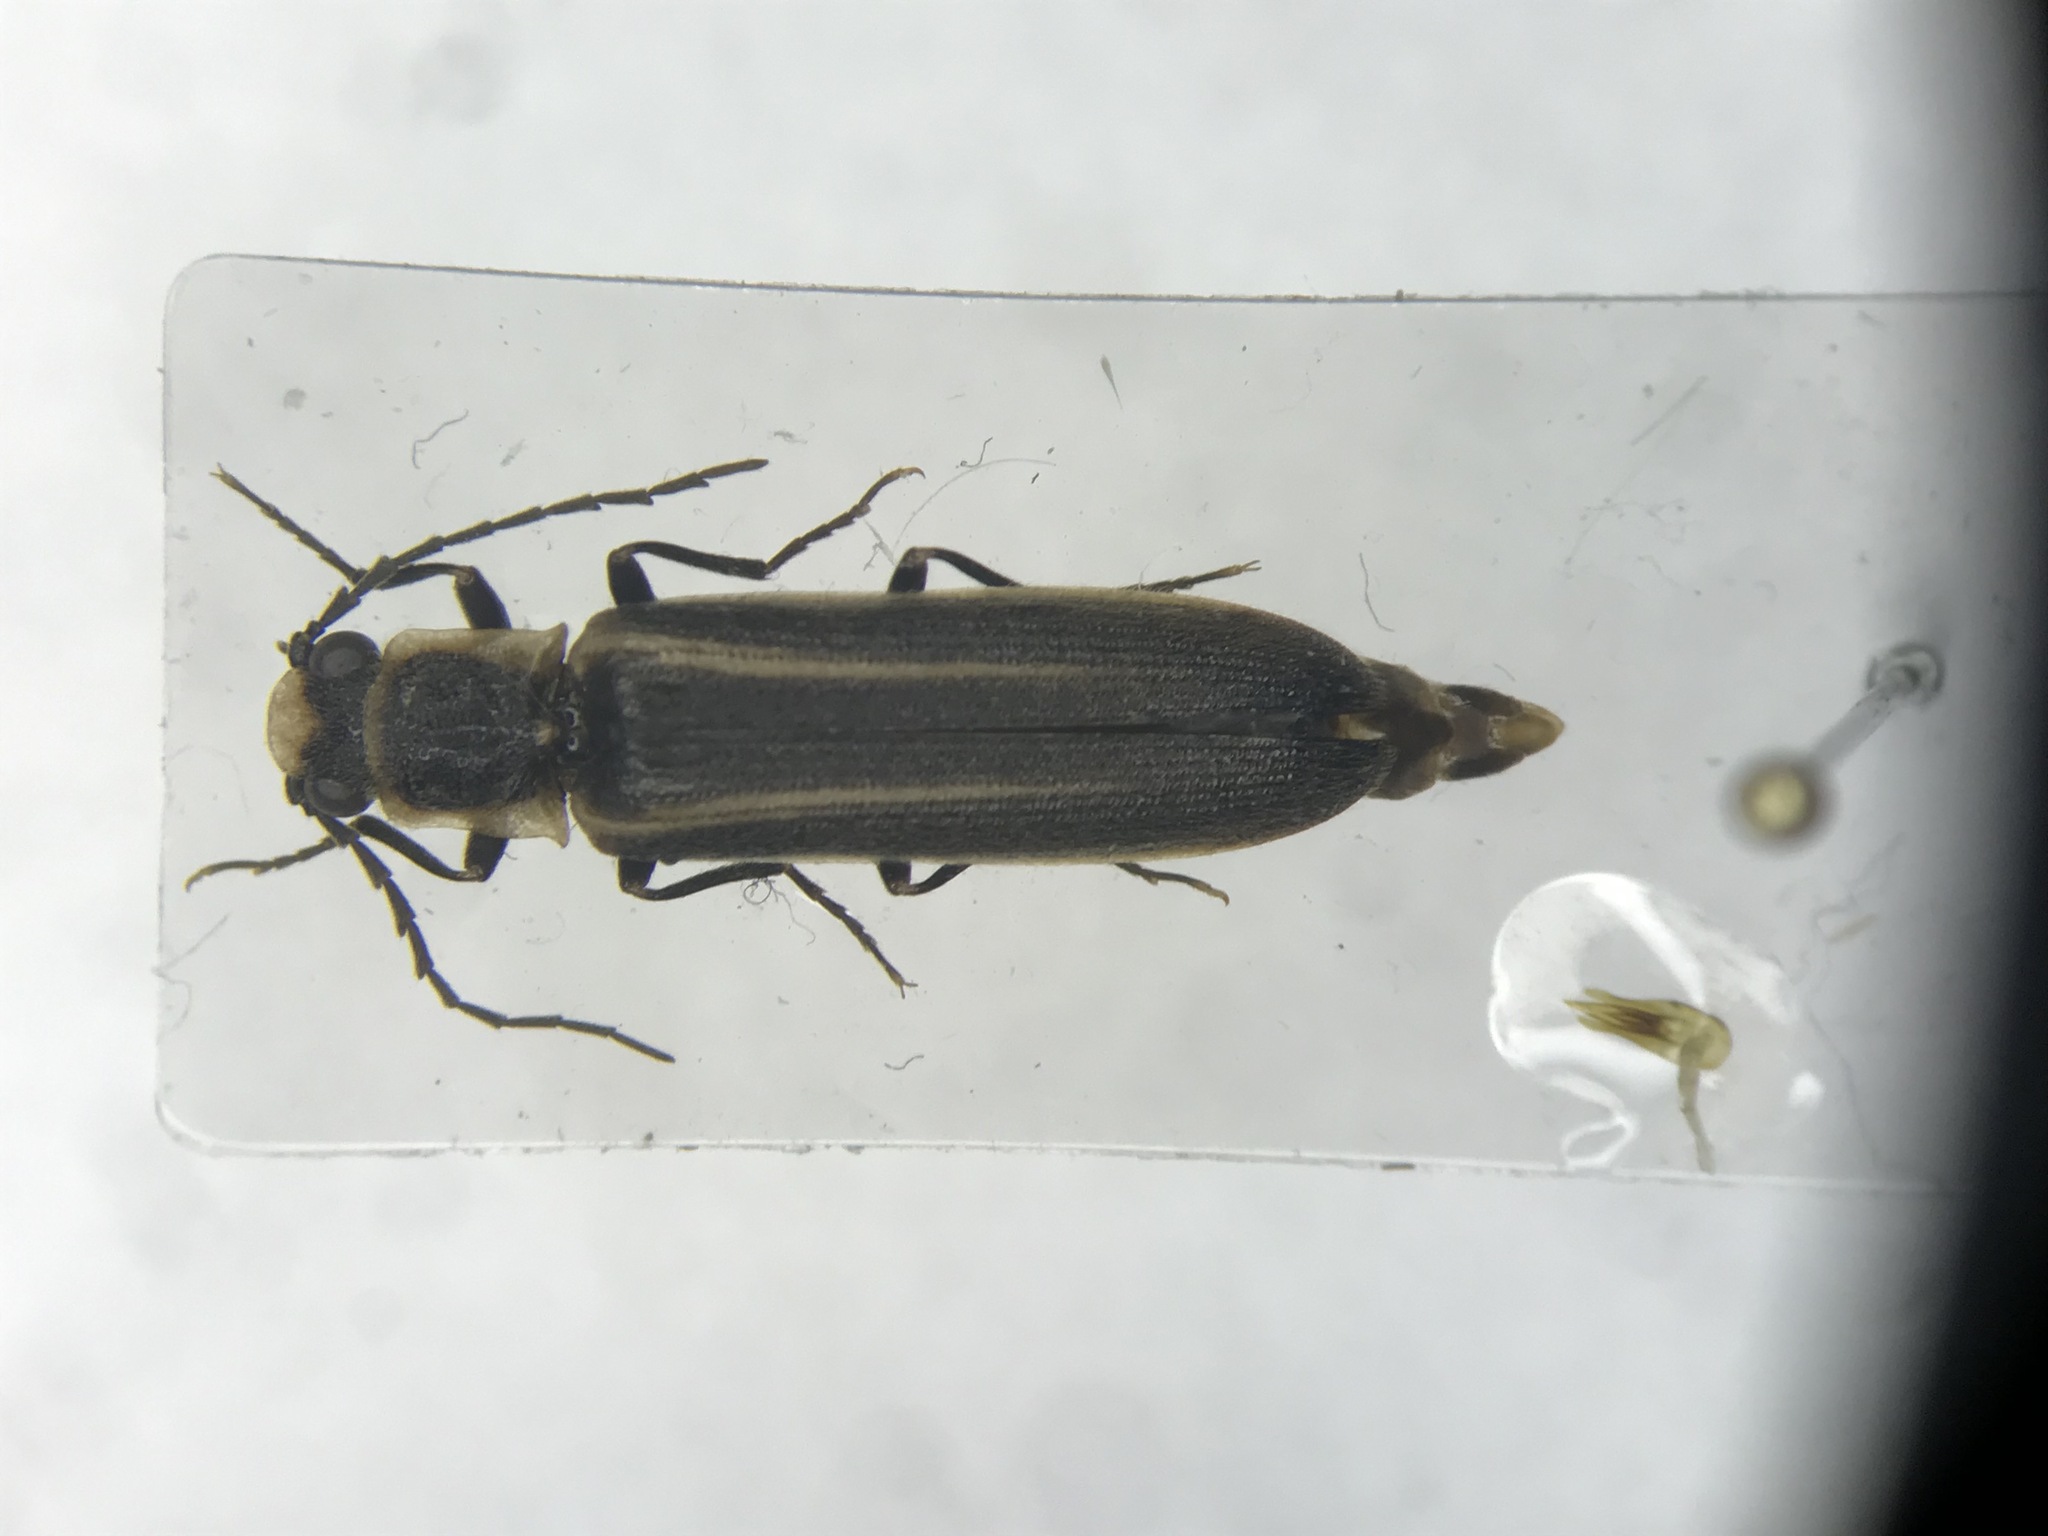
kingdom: Animalia
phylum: Arthropoda
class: Insecta
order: Coleoptera
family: Elateridae
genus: Denticollis
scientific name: Denticollis denticornis
